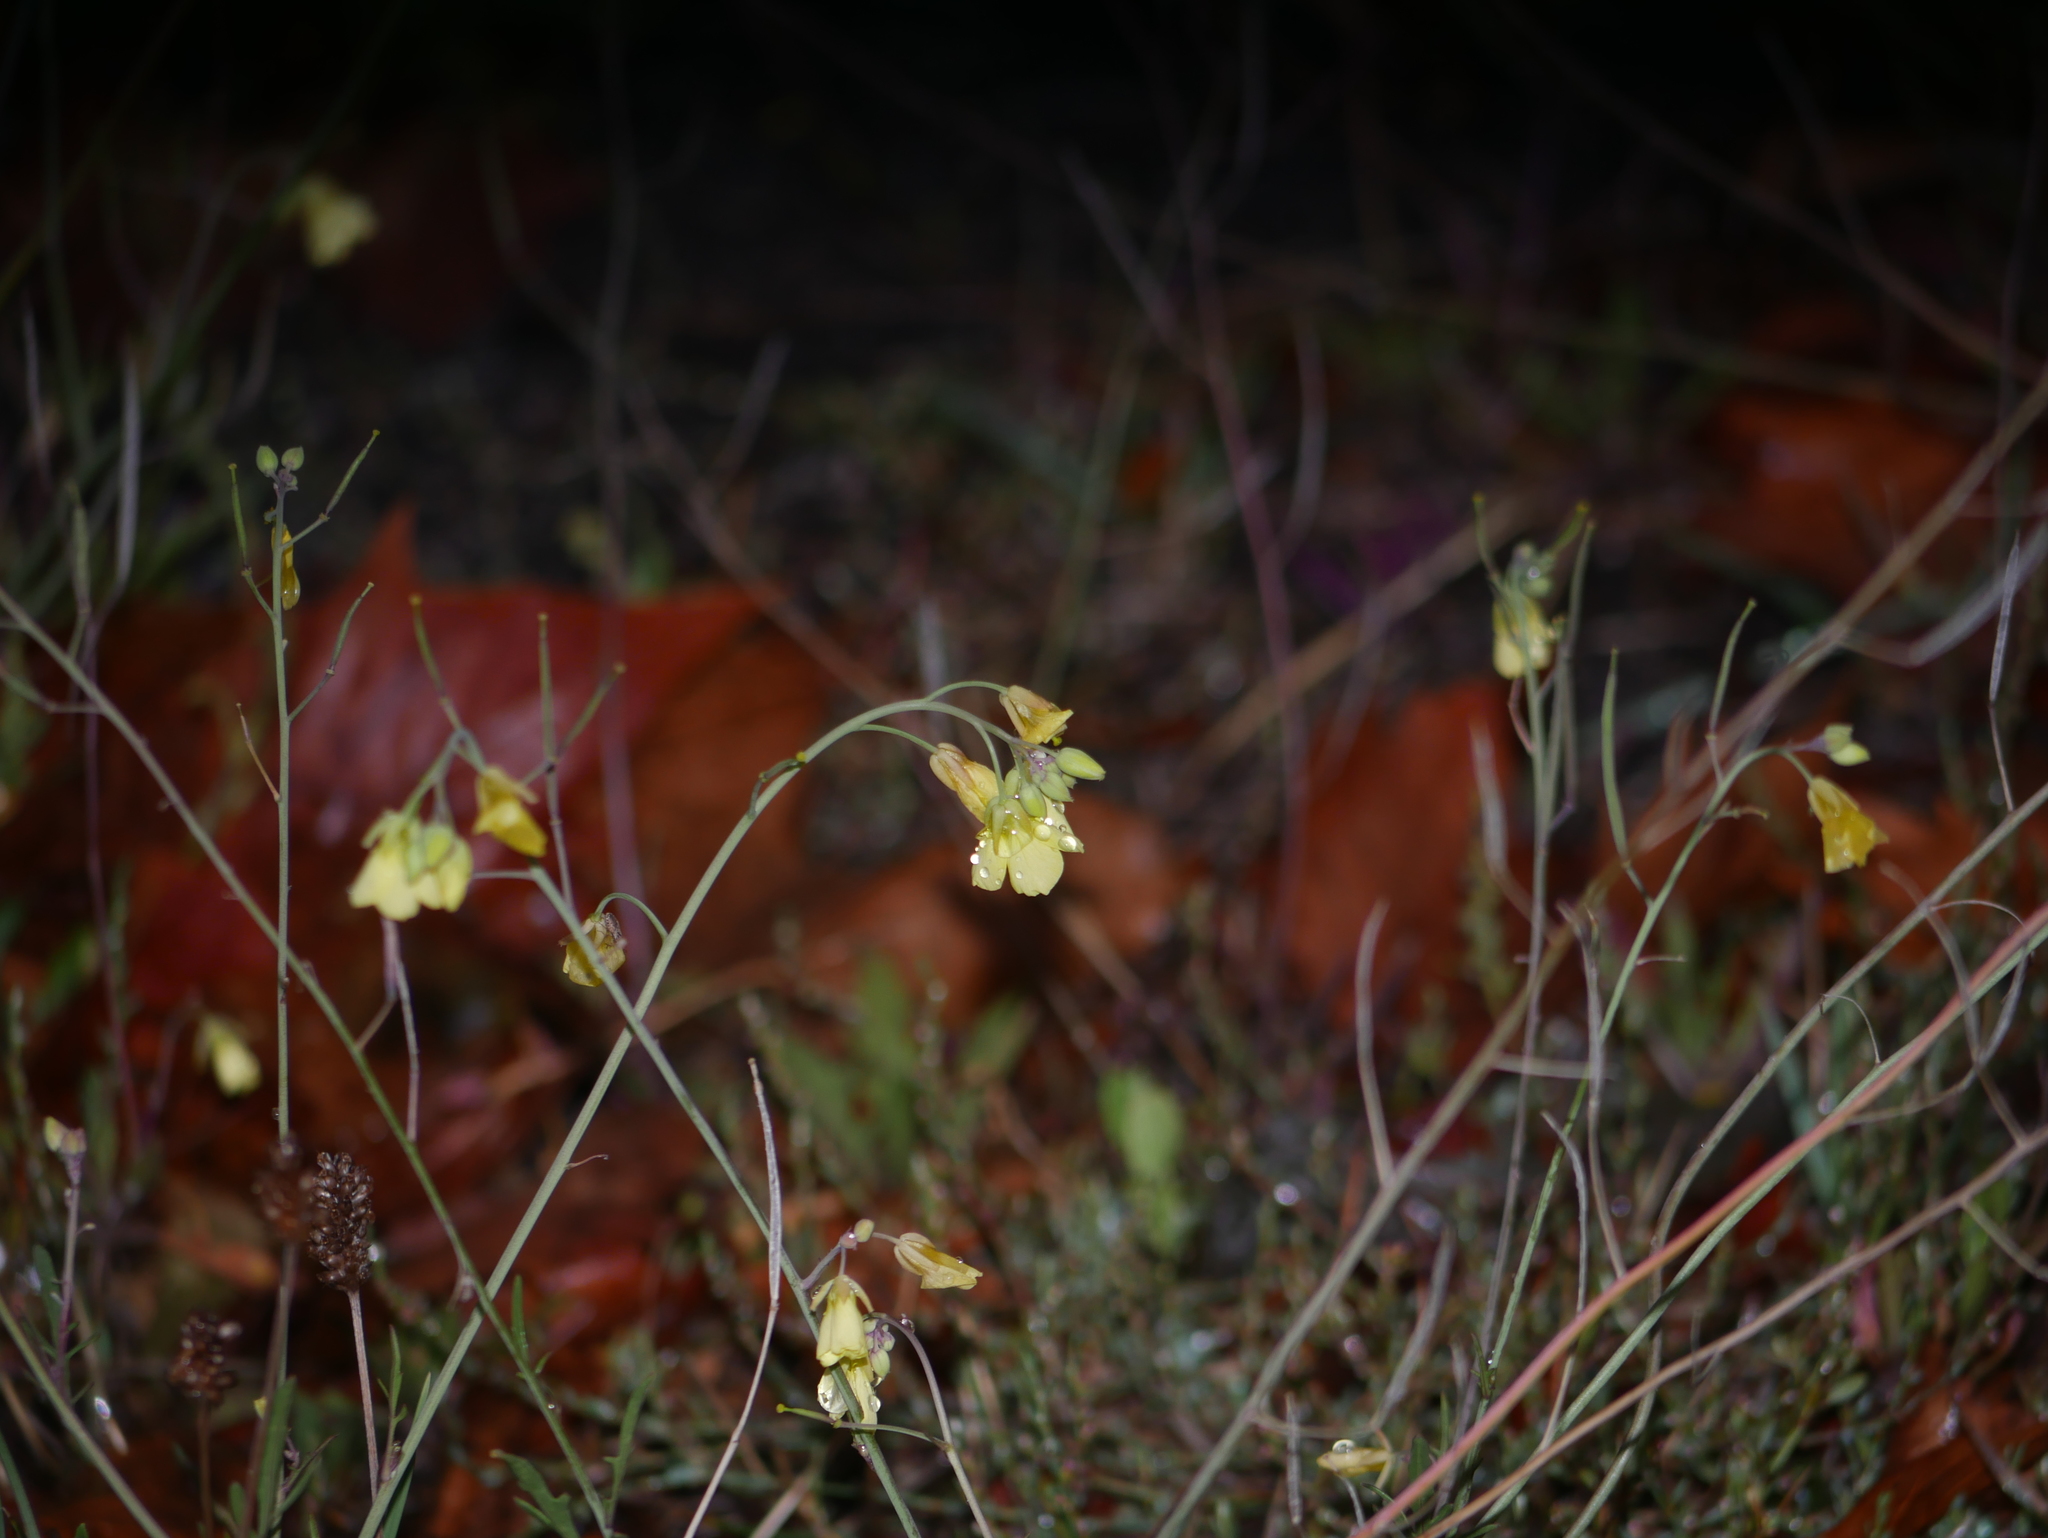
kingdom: Plantae
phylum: Tracheophyta
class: Magnoliopsida
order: Brassicales
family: Brassicaceae
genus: Diplotaxis
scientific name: Diplotaxis tenuifolia
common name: Perennial wall-rocket
